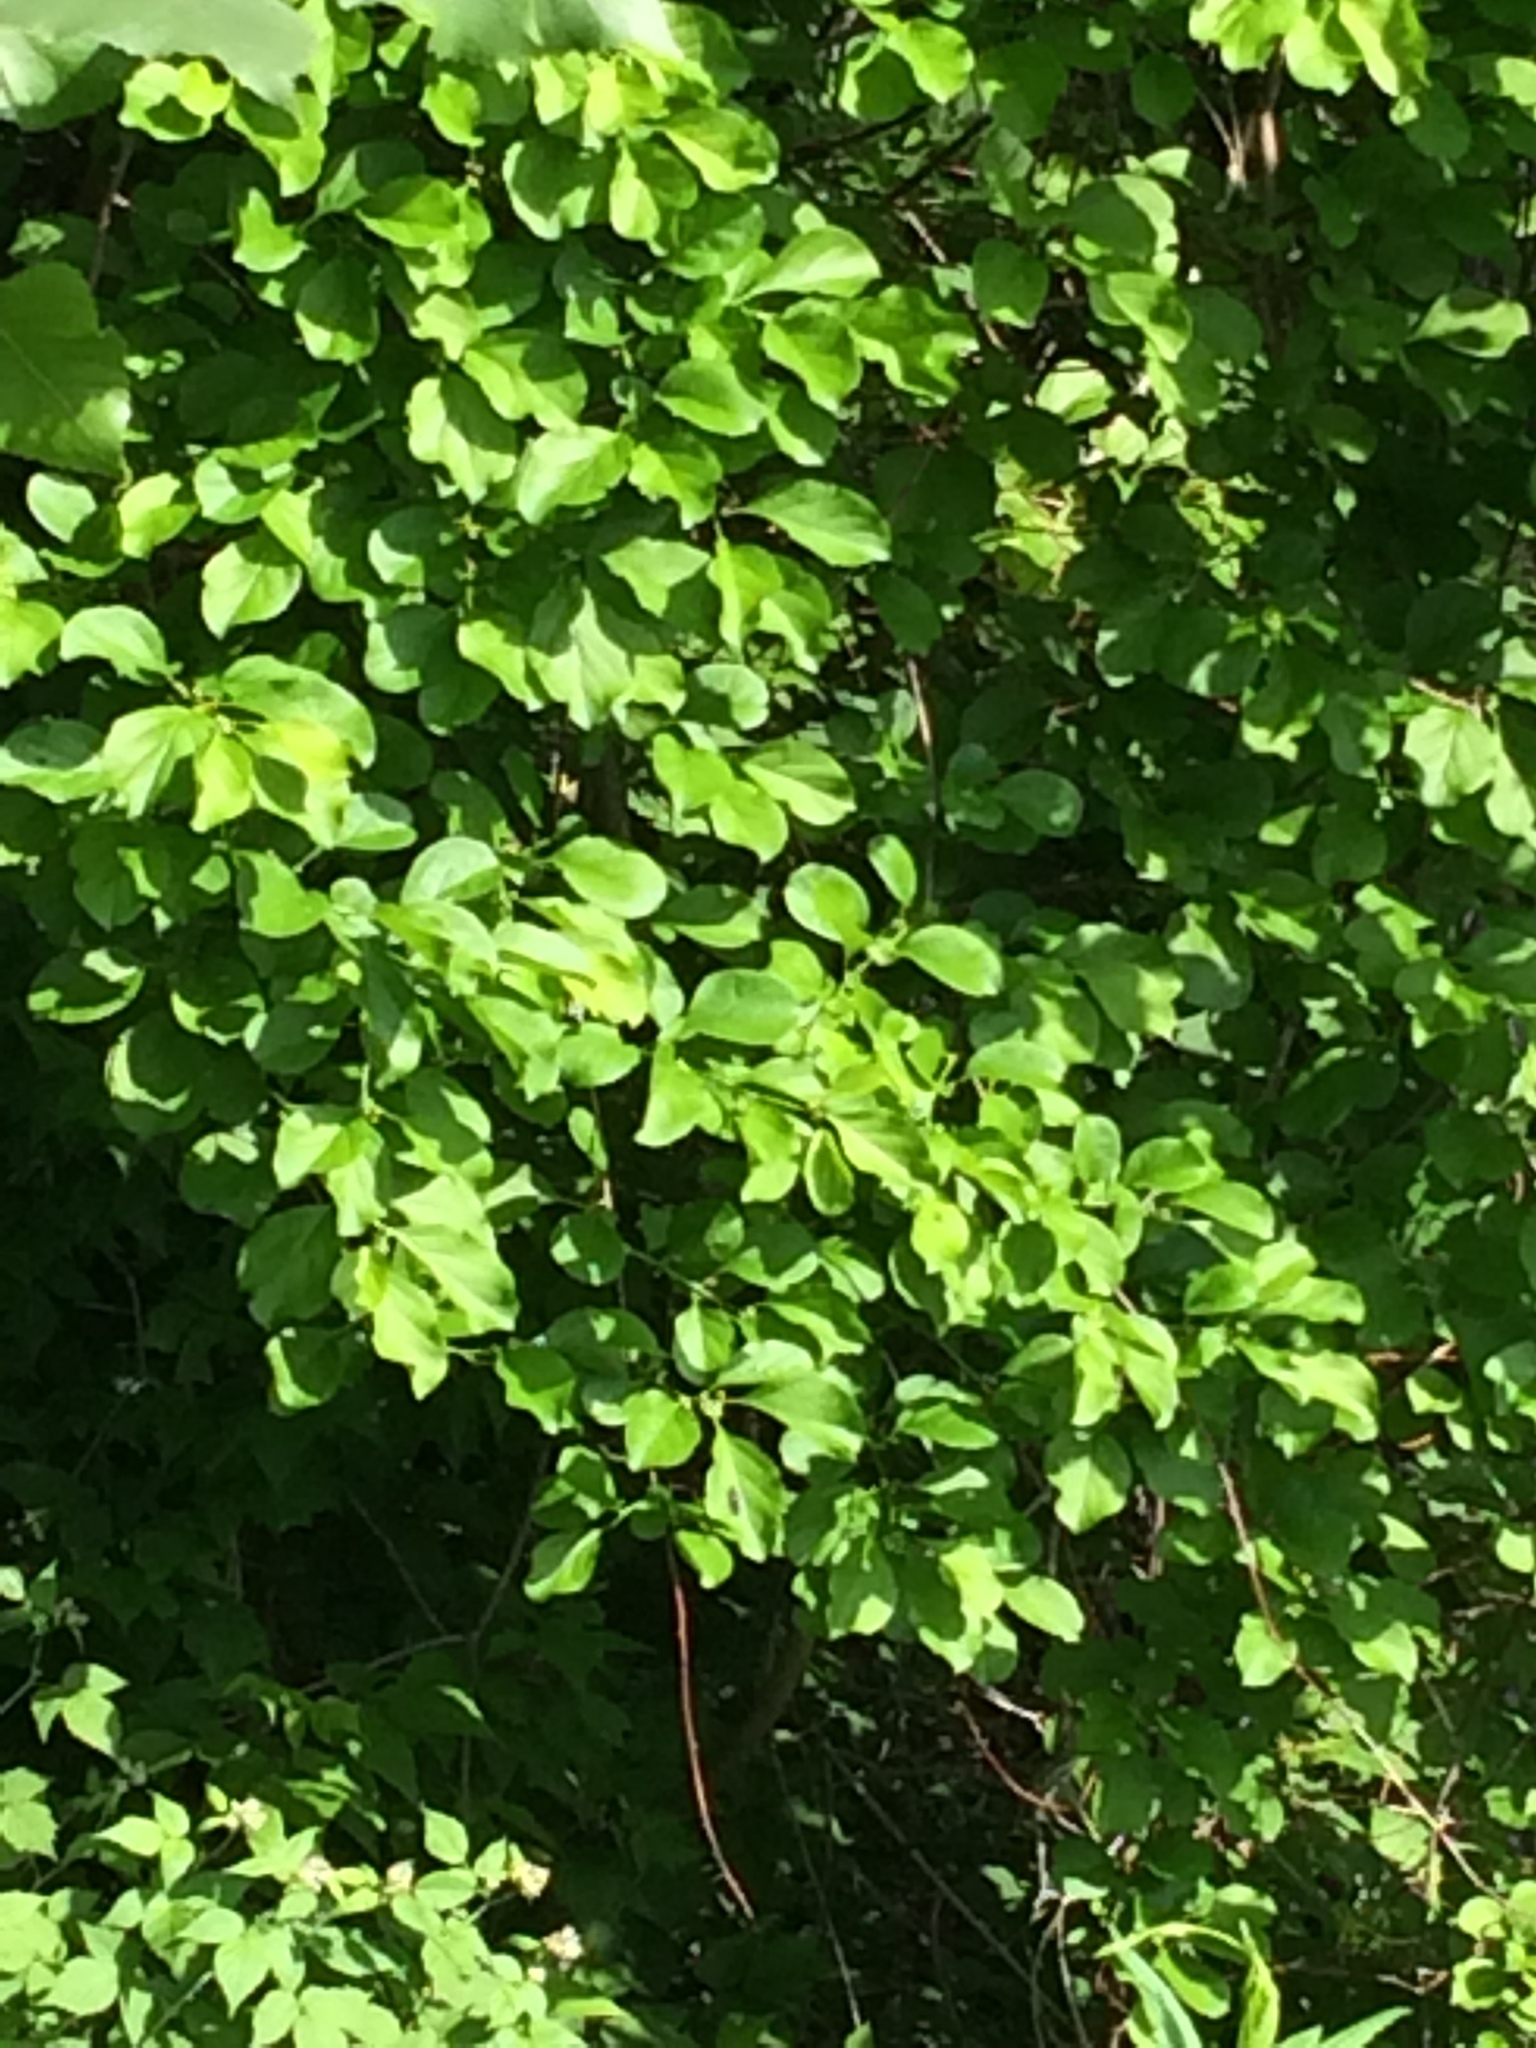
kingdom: Plantae
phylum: Tracheophyta
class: Magnoliopsida
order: Celastrales
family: Celastraceae
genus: Celastrus
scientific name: Celastrus orbiculatus
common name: Oriental bittersweet
